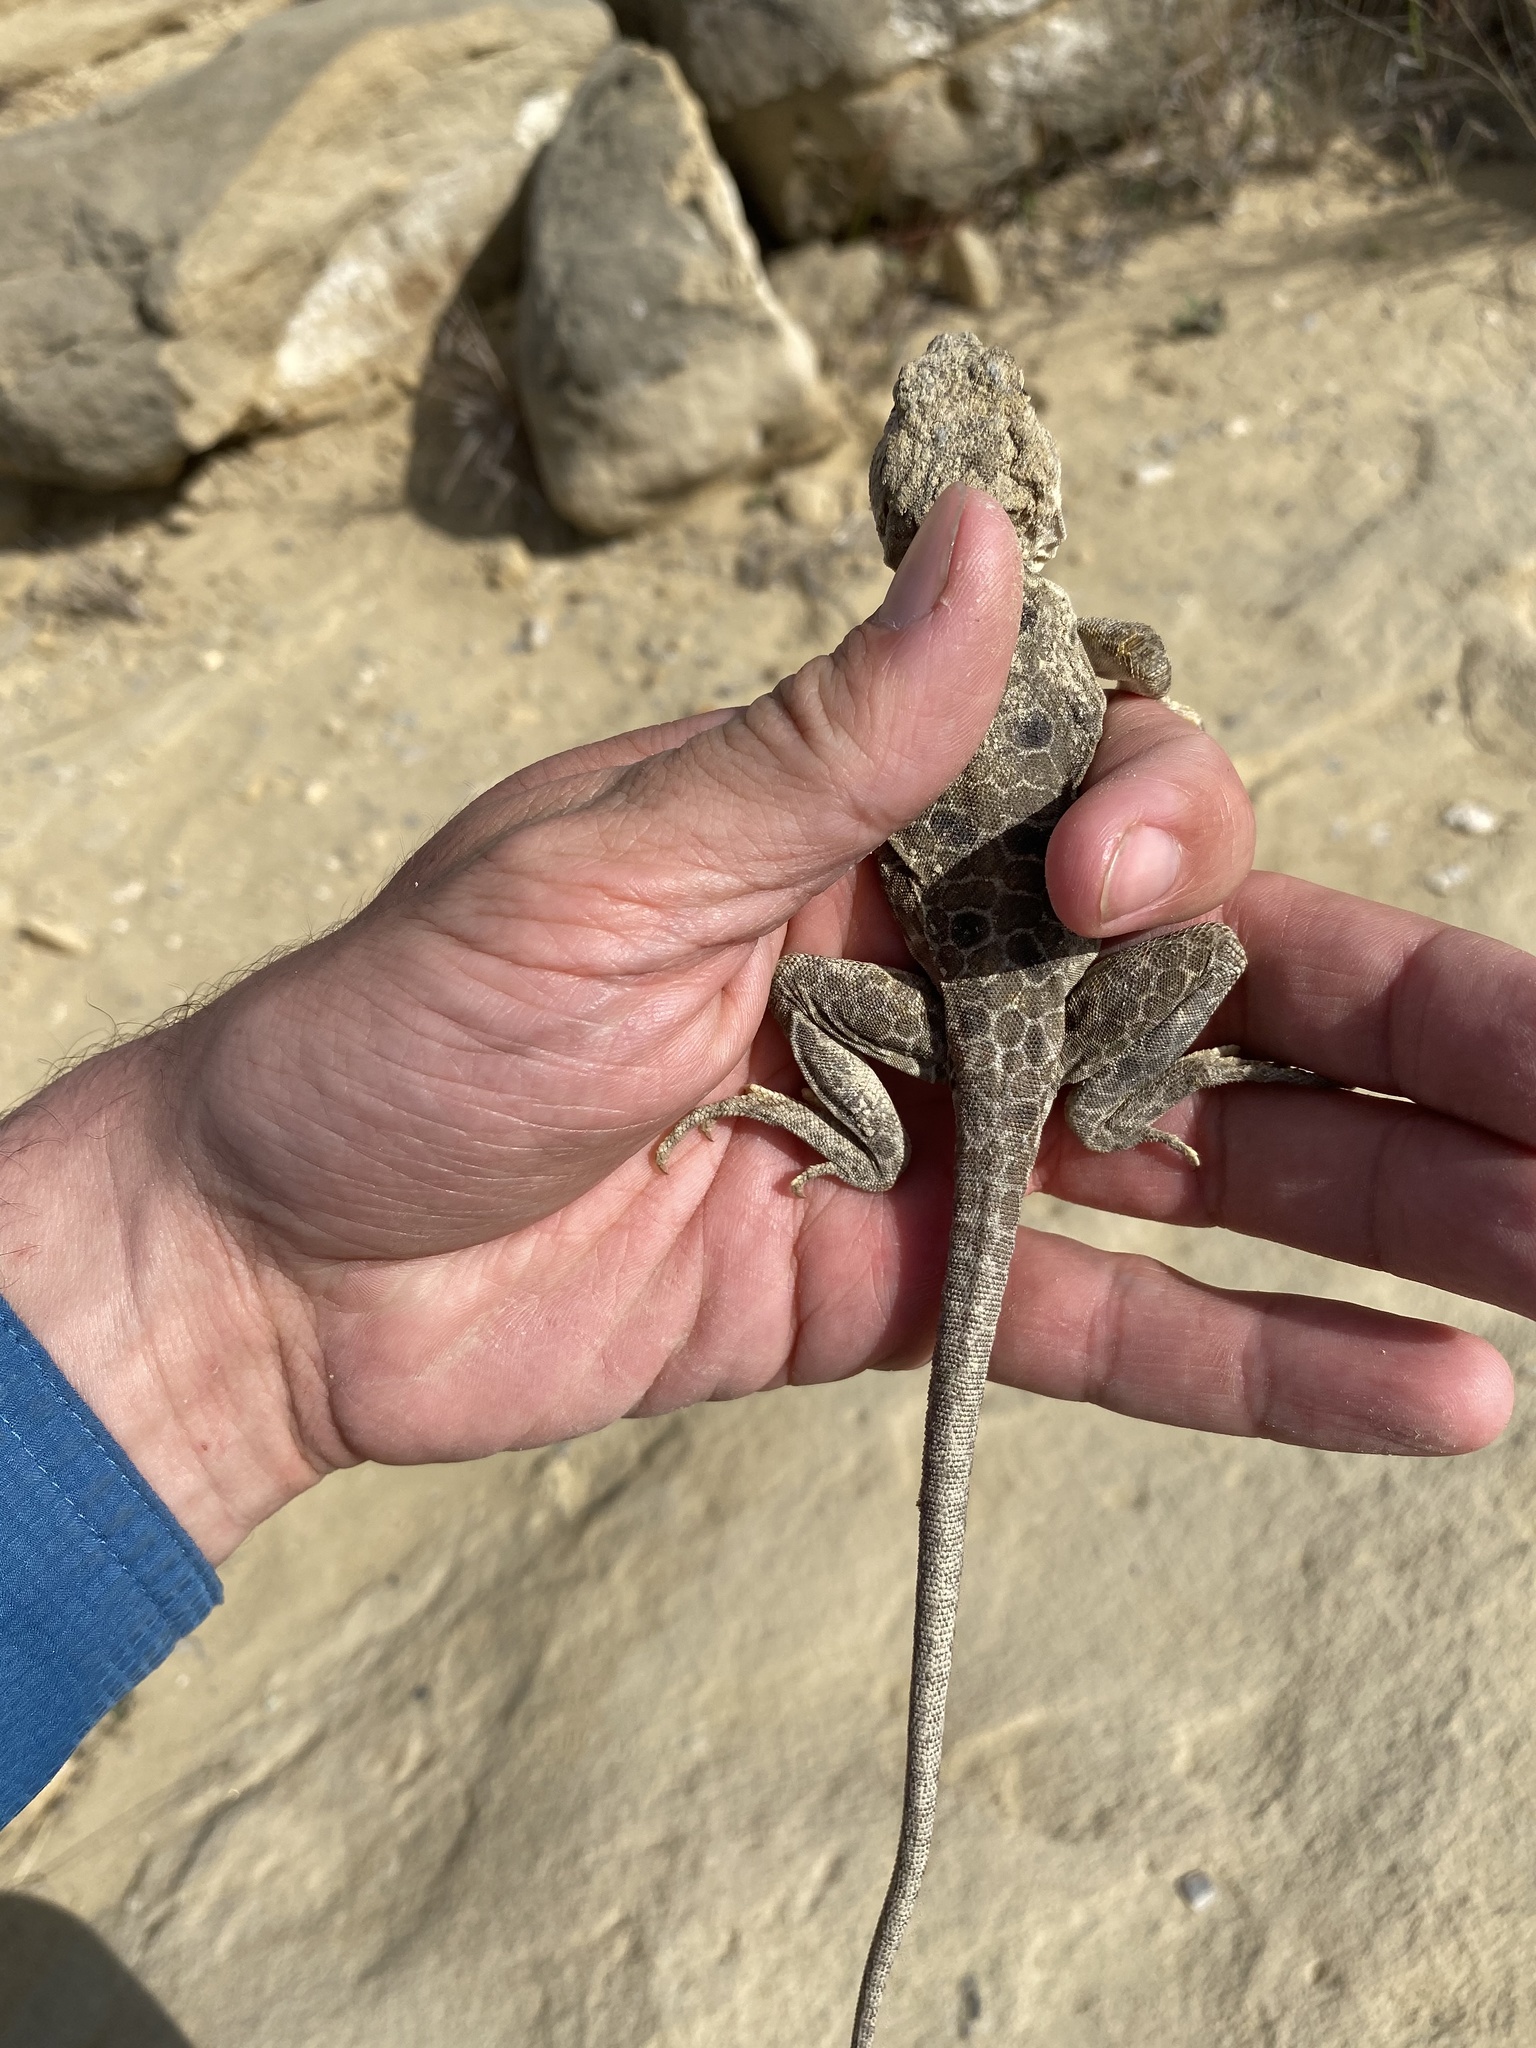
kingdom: Animalia
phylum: Chordata
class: Squamata
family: Crotaphytidae
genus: Crotaphytus
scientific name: Crotaphytus reticulatus
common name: Reticulate collared lizard
